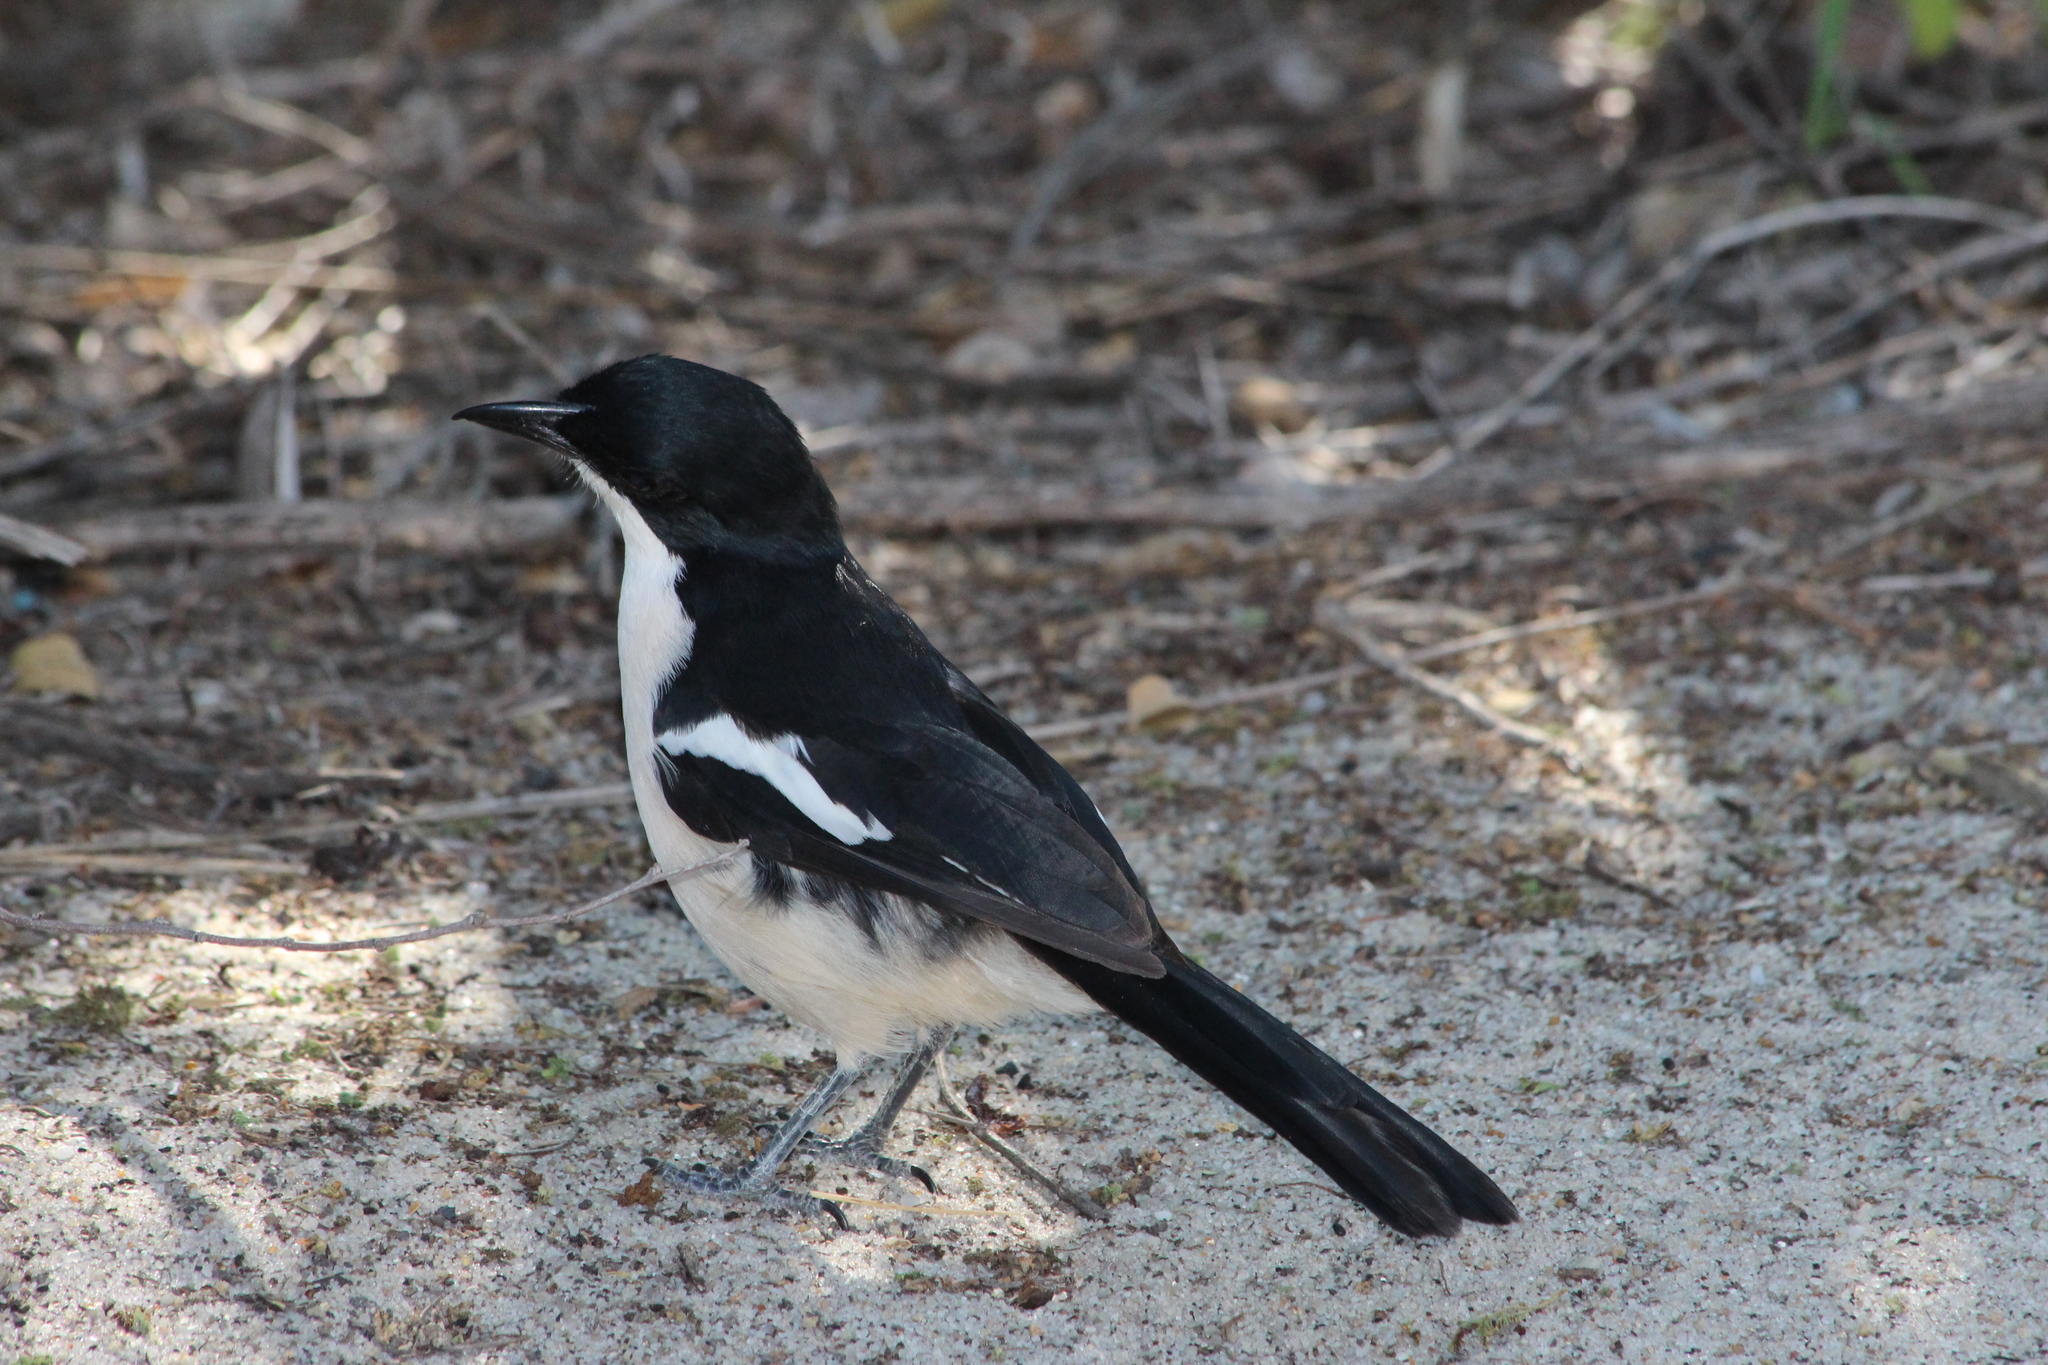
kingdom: Animalia
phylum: Chordata
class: Aves
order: Passeriformes
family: Malaconotidae
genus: Laniarius
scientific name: Laniarius major
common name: Tropical boubou
